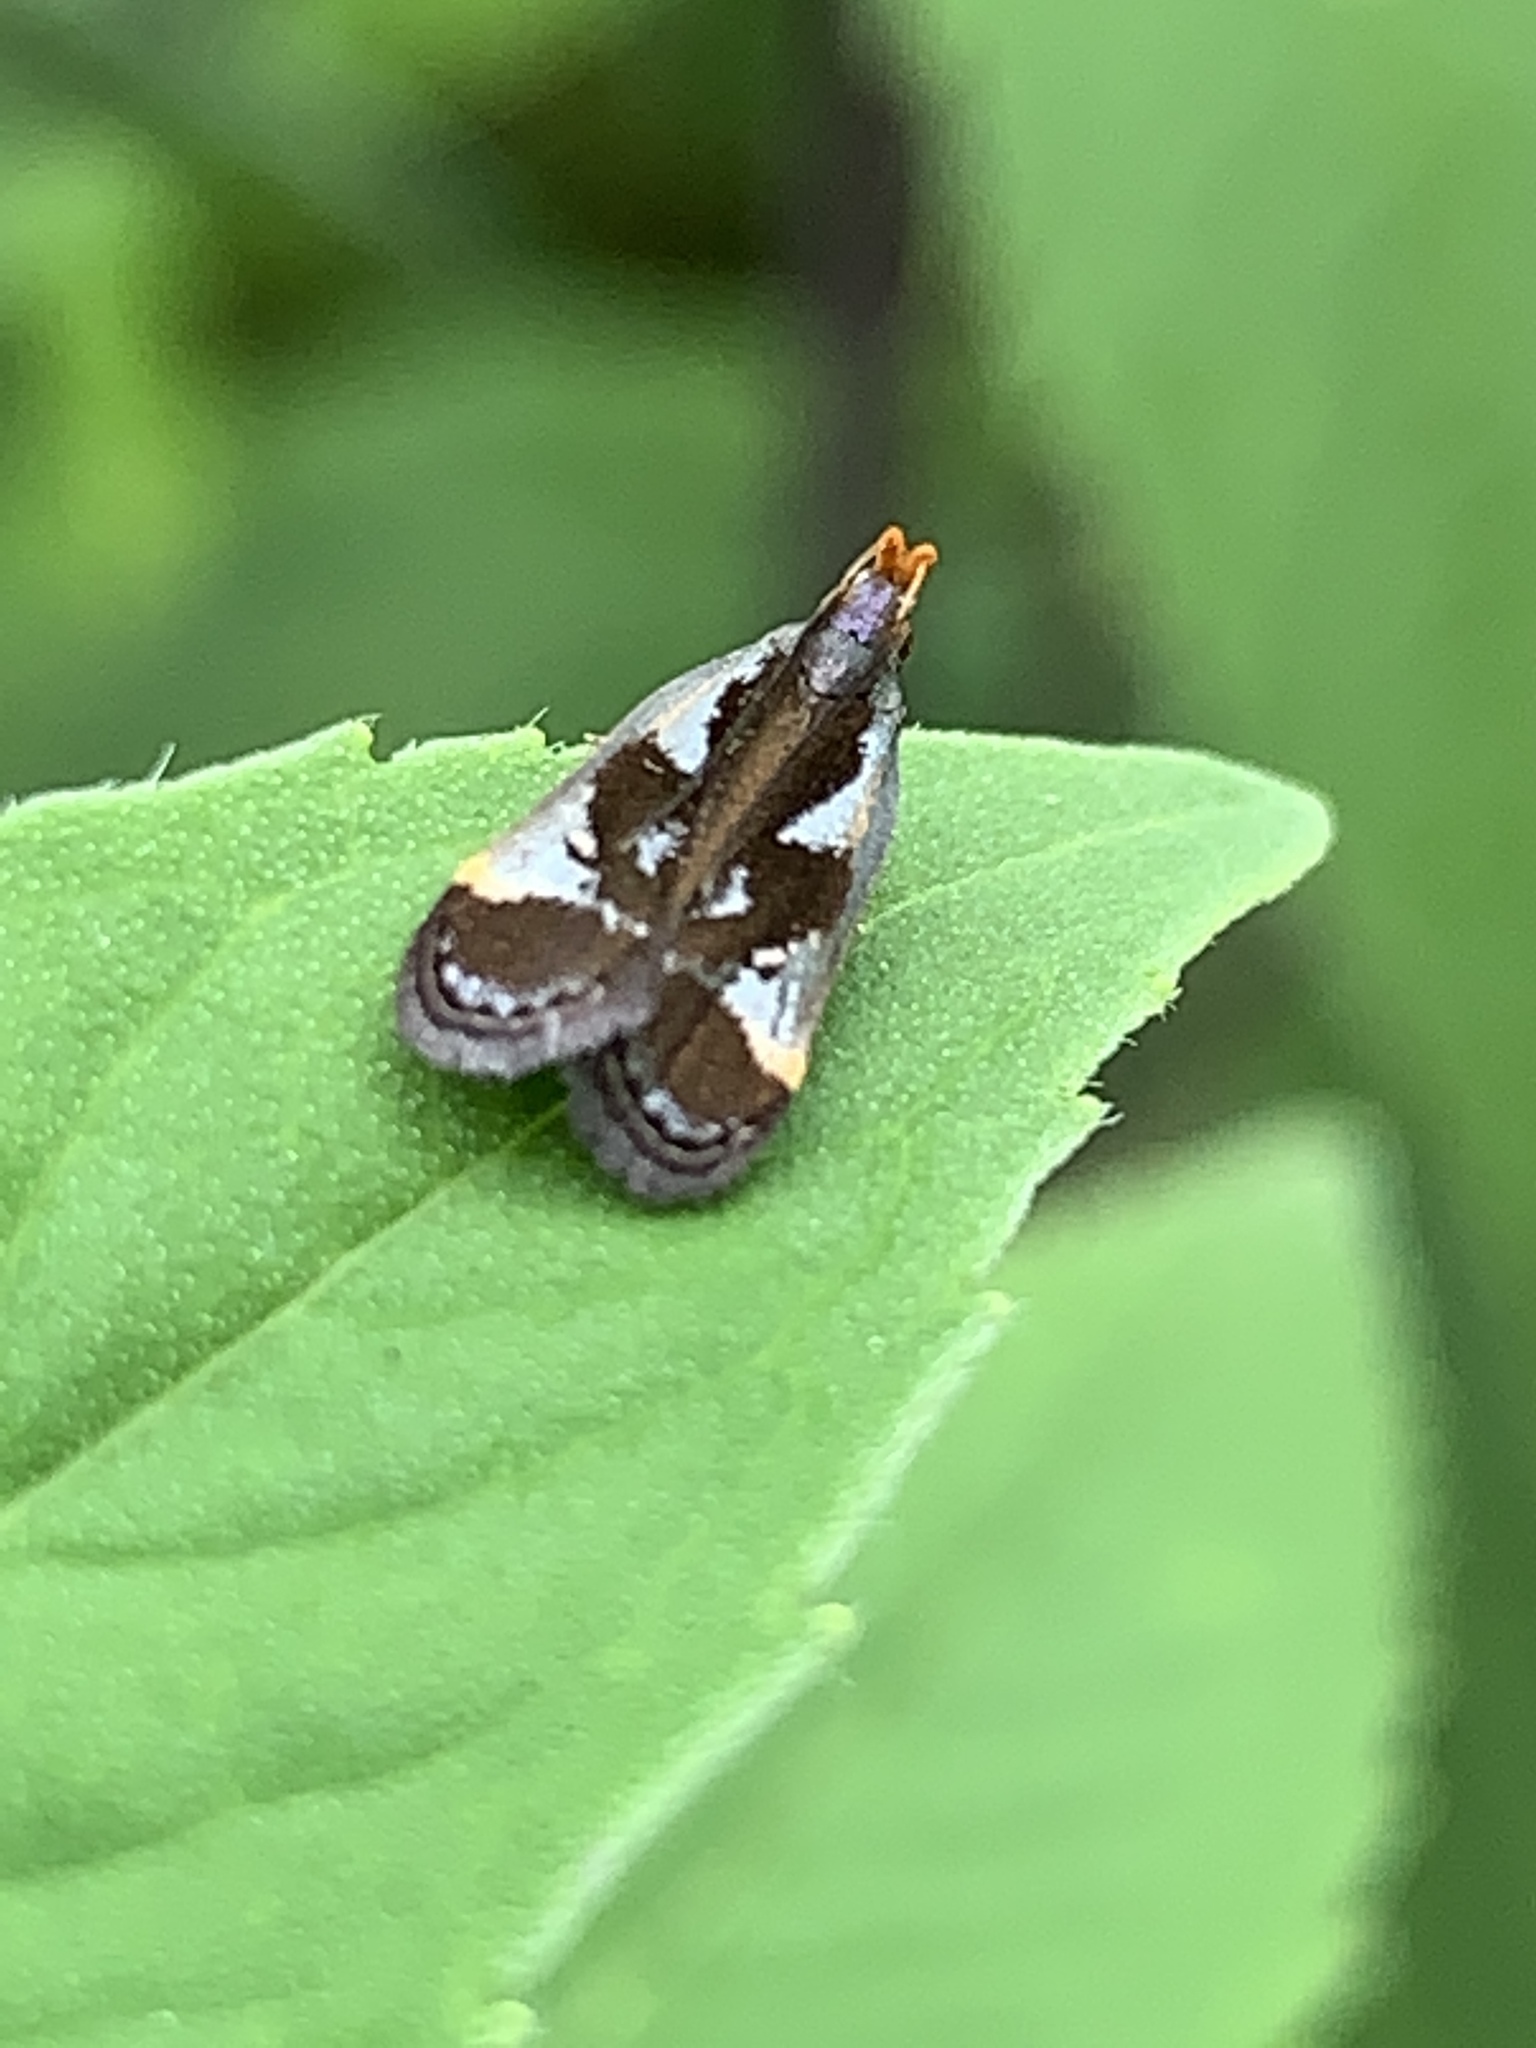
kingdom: Animalia
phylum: Arthropoda
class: Insecta
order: Lepidoptera
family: Gelechiidae
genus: Dichomeris
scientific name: Dichomeris ochripalpella
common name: Shining dichomeris moth
